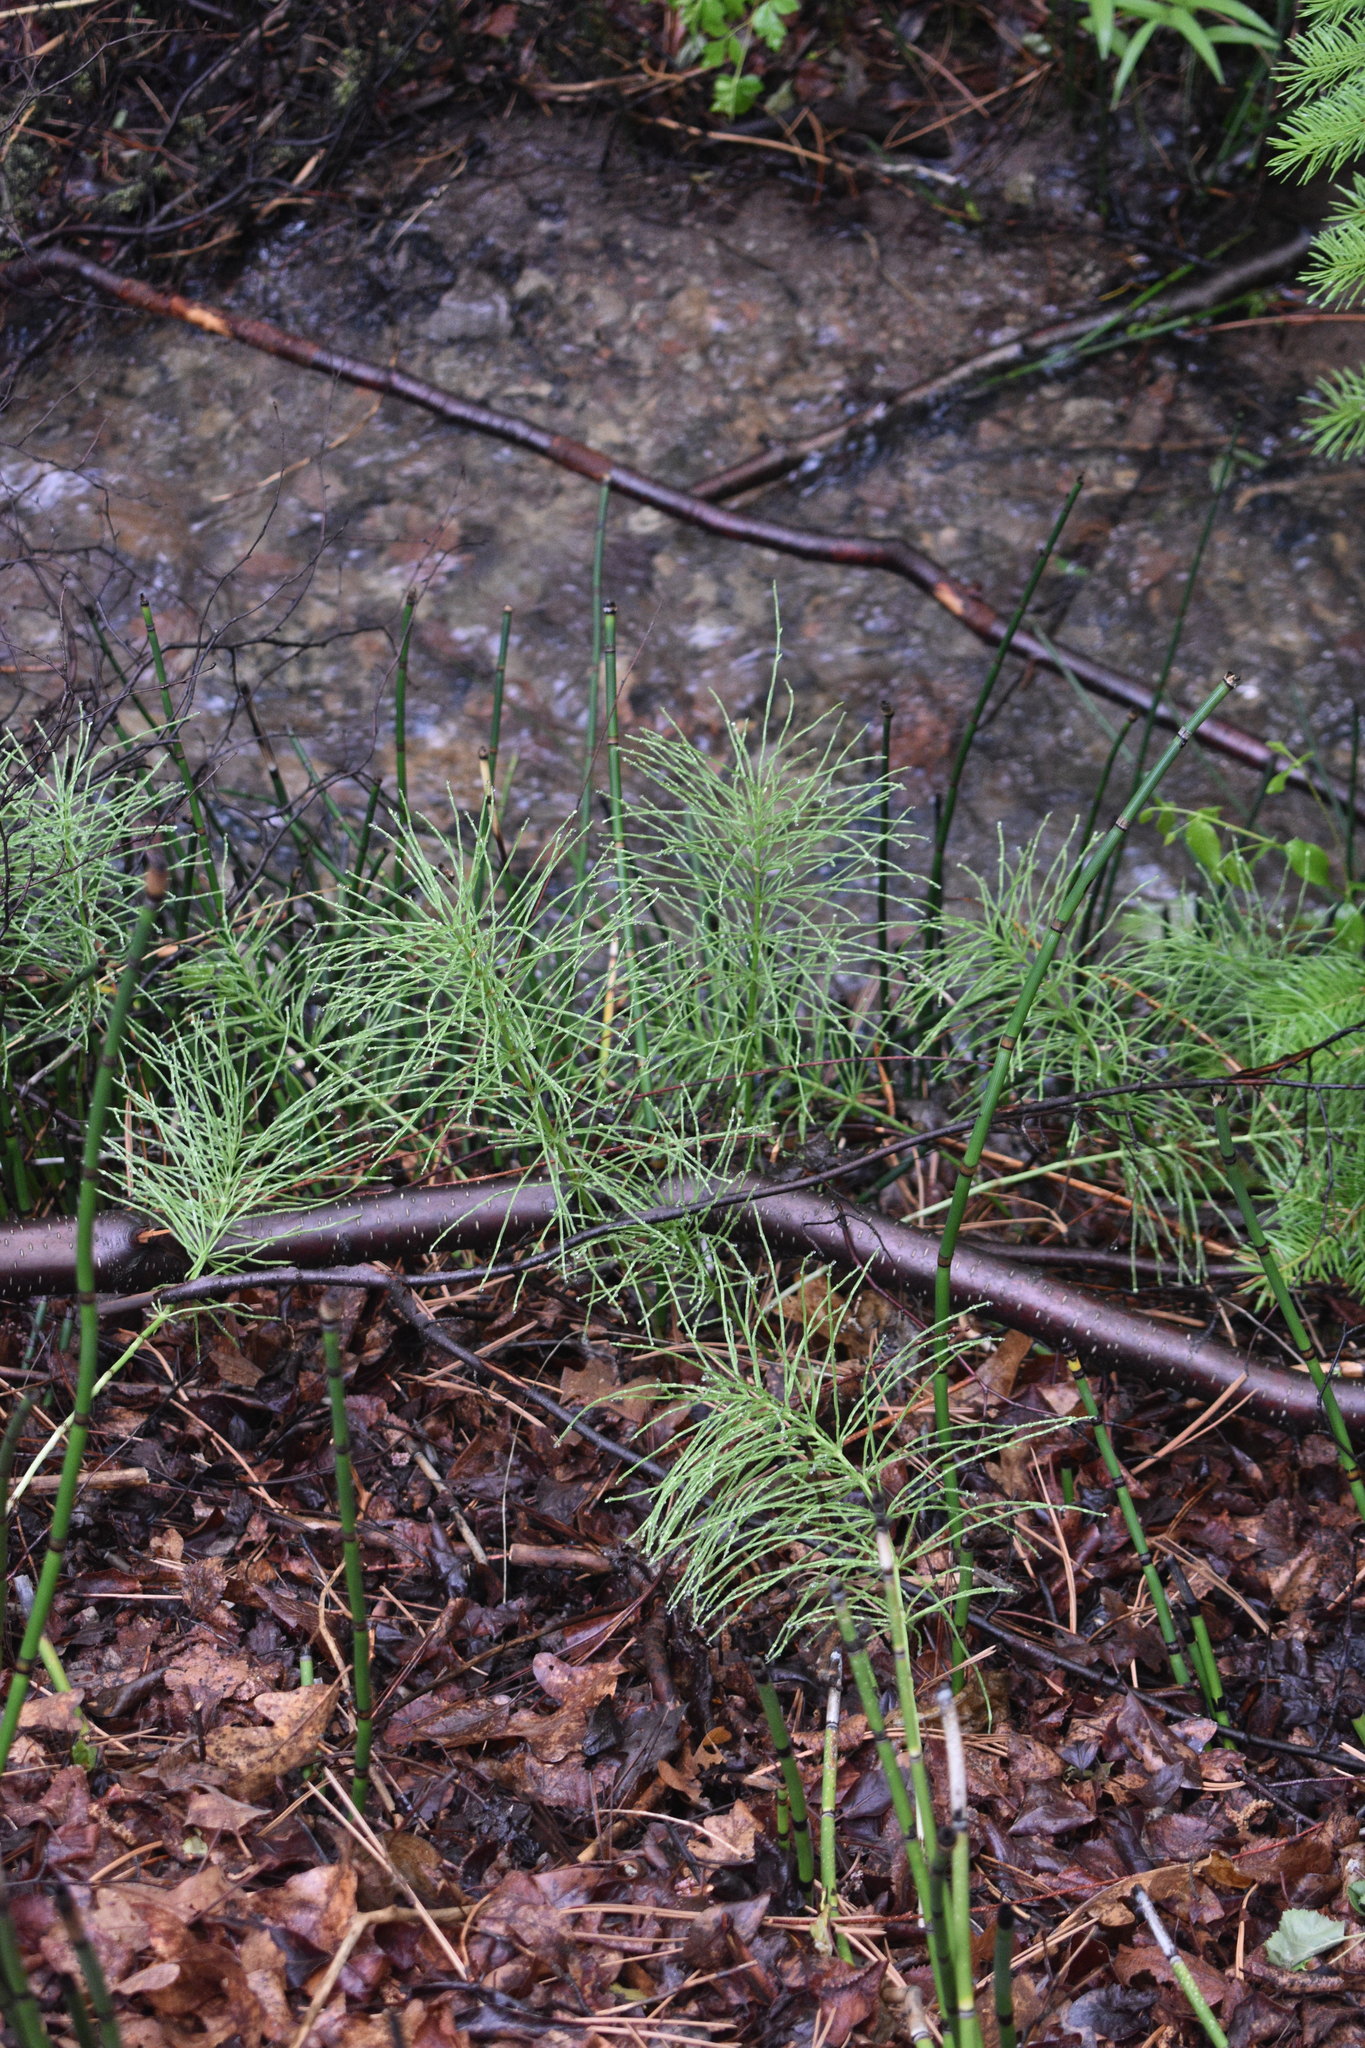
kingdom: Plantae
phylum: Tracheophyta
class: Polypodiopsida
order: Equisetales
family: Equisetaceae
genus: Equisetum
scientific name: Equisetum arvense
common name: Field horsetail
